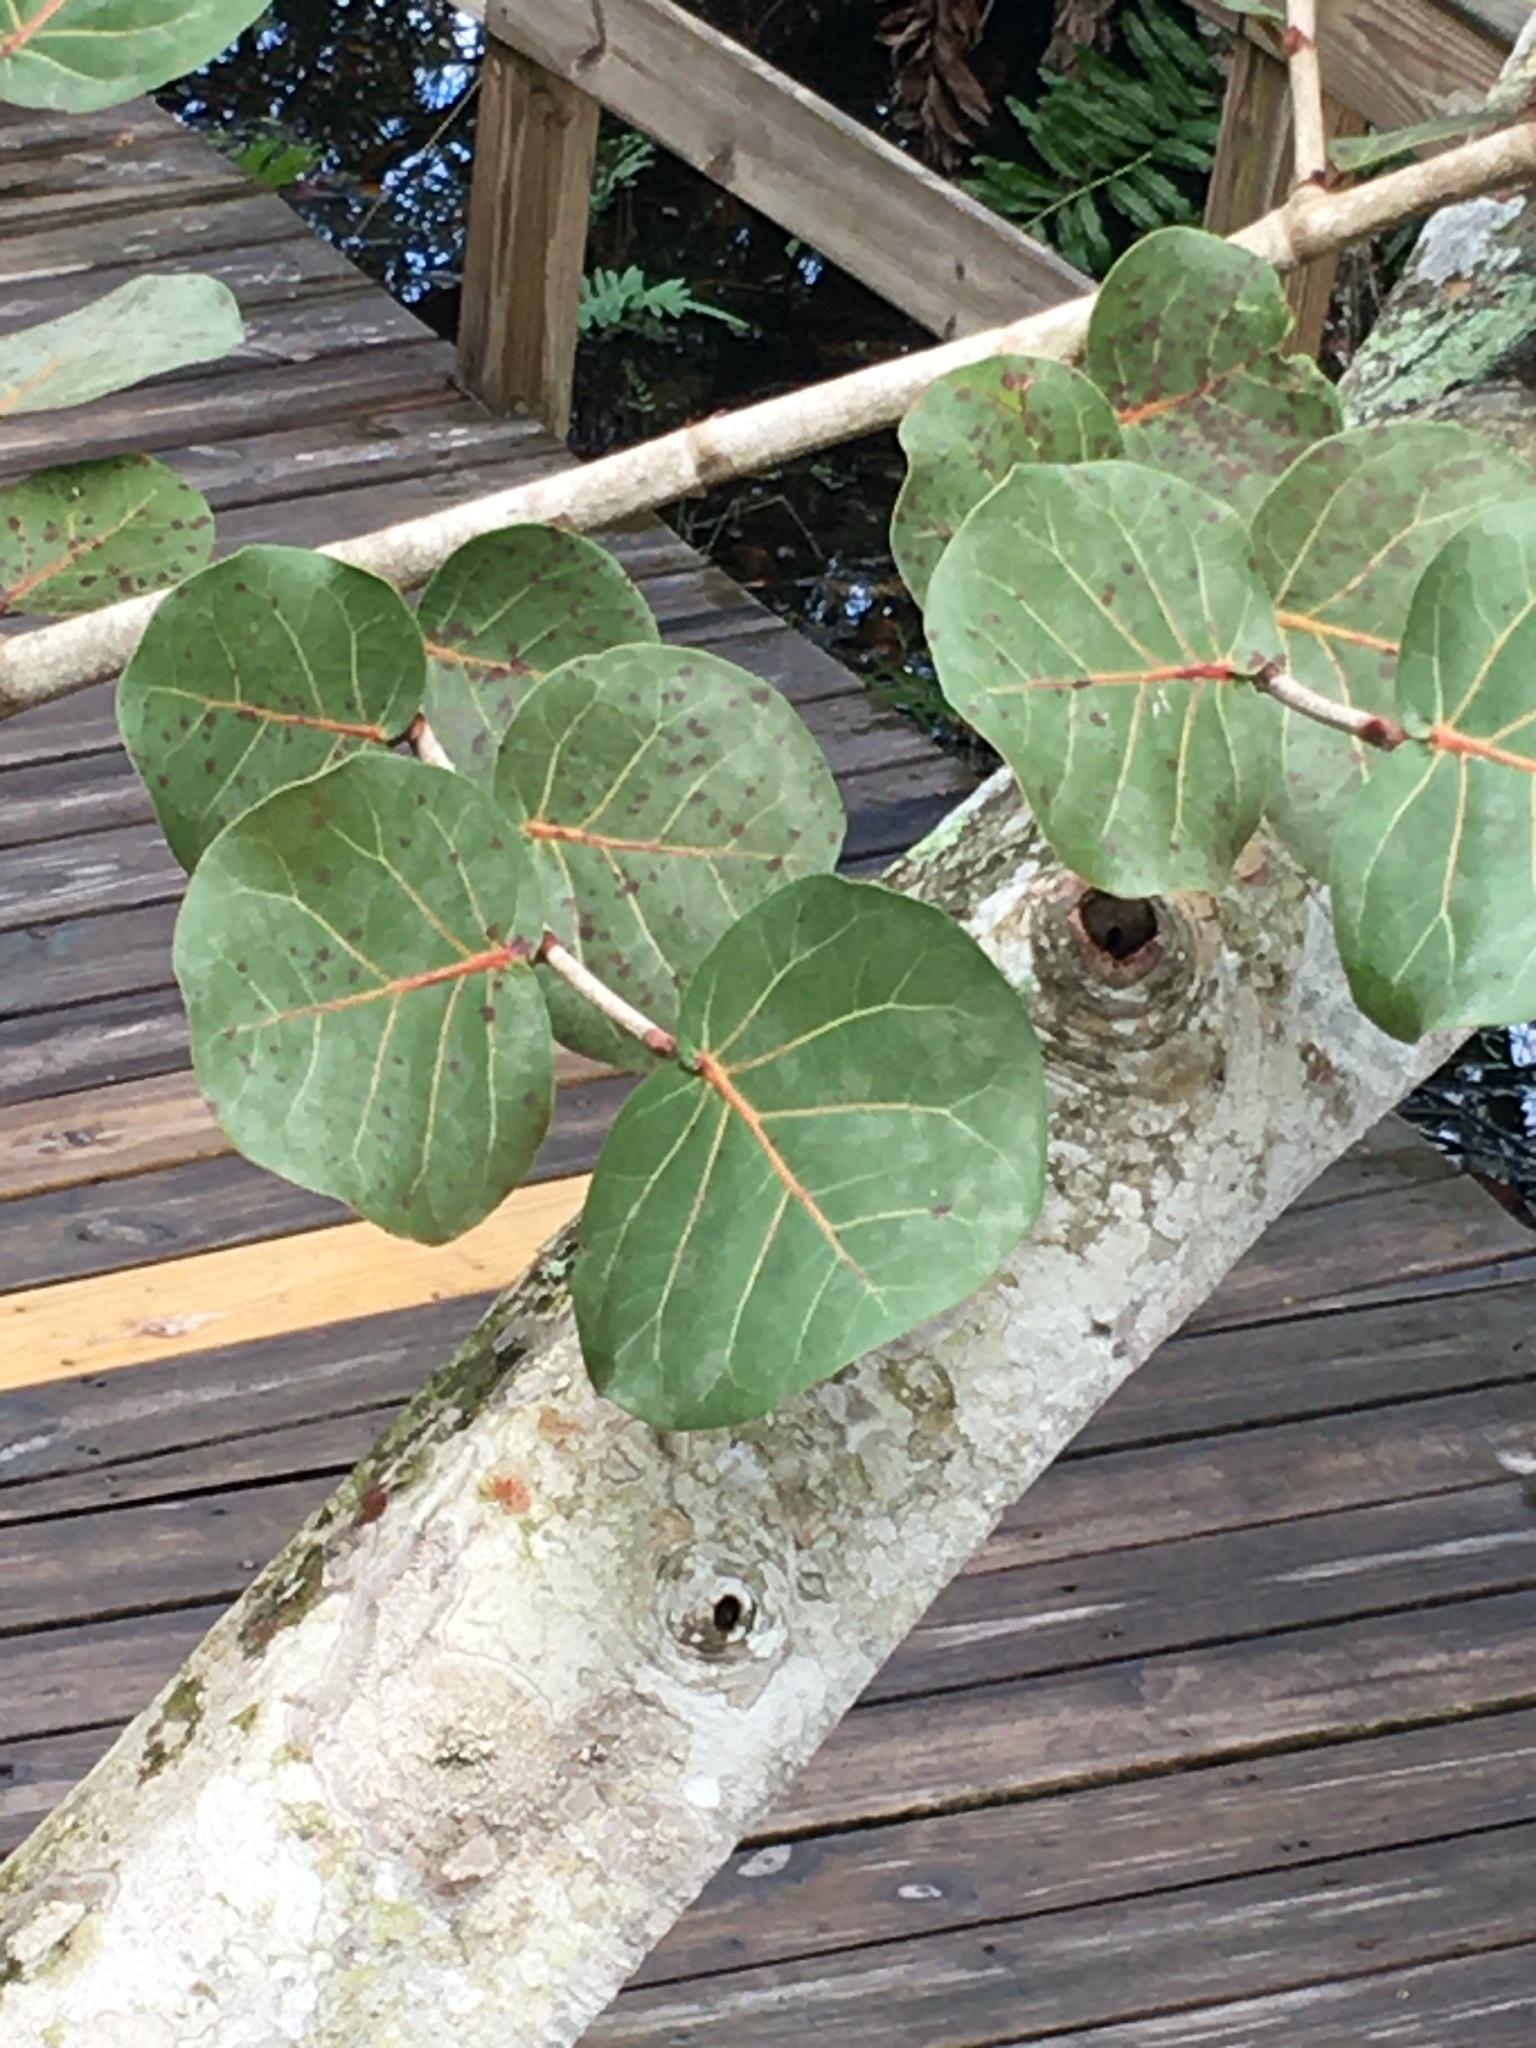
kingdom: Plantae
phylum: Tracheophyta
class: Magnoliopsida
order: Caryophyllales
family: Polygonaceae
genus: Coccoloba
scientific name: Coccoloba uvifera
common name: Seagrape
